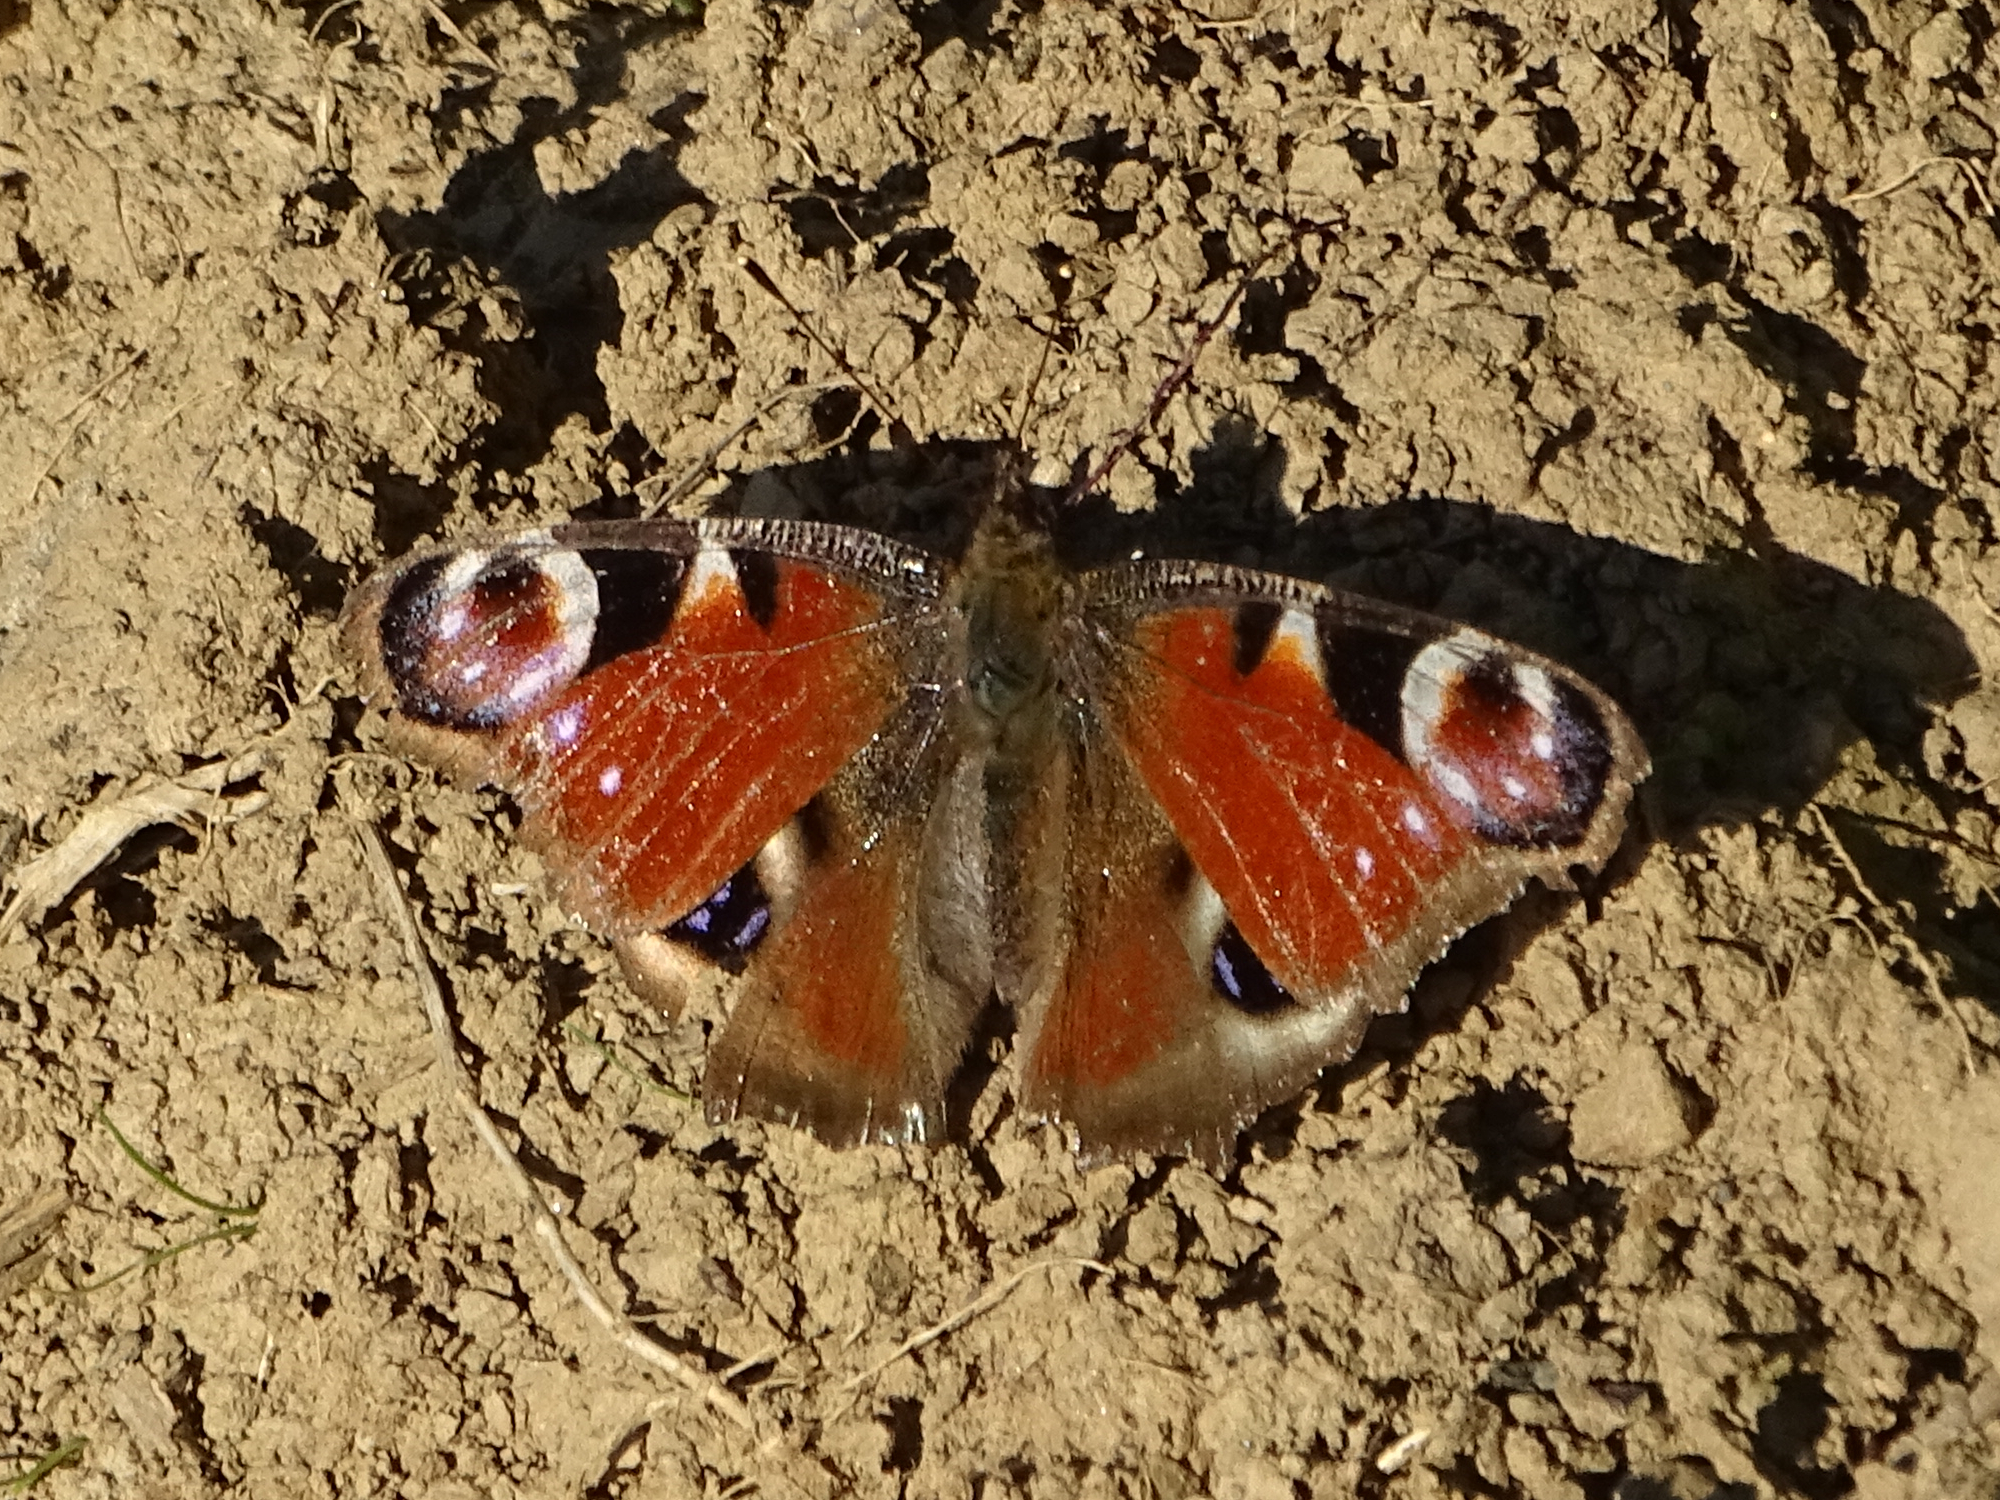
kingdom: Animalia
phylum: Arthropoda
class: Insecta
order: Lepidoptera
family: Nymphalidae
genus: Aglais
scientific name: Aglais io
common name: Peacock
